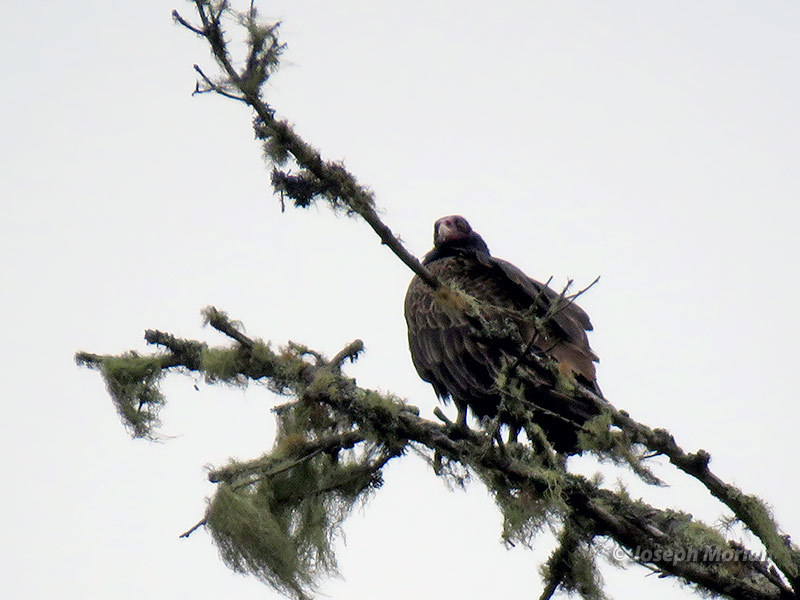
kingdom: Animalia
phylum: Chordata
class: Aves
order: Accipitriformes
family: Cathartidae
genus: Cathartes
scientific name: Cathartes aura
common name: Turkey vulture
